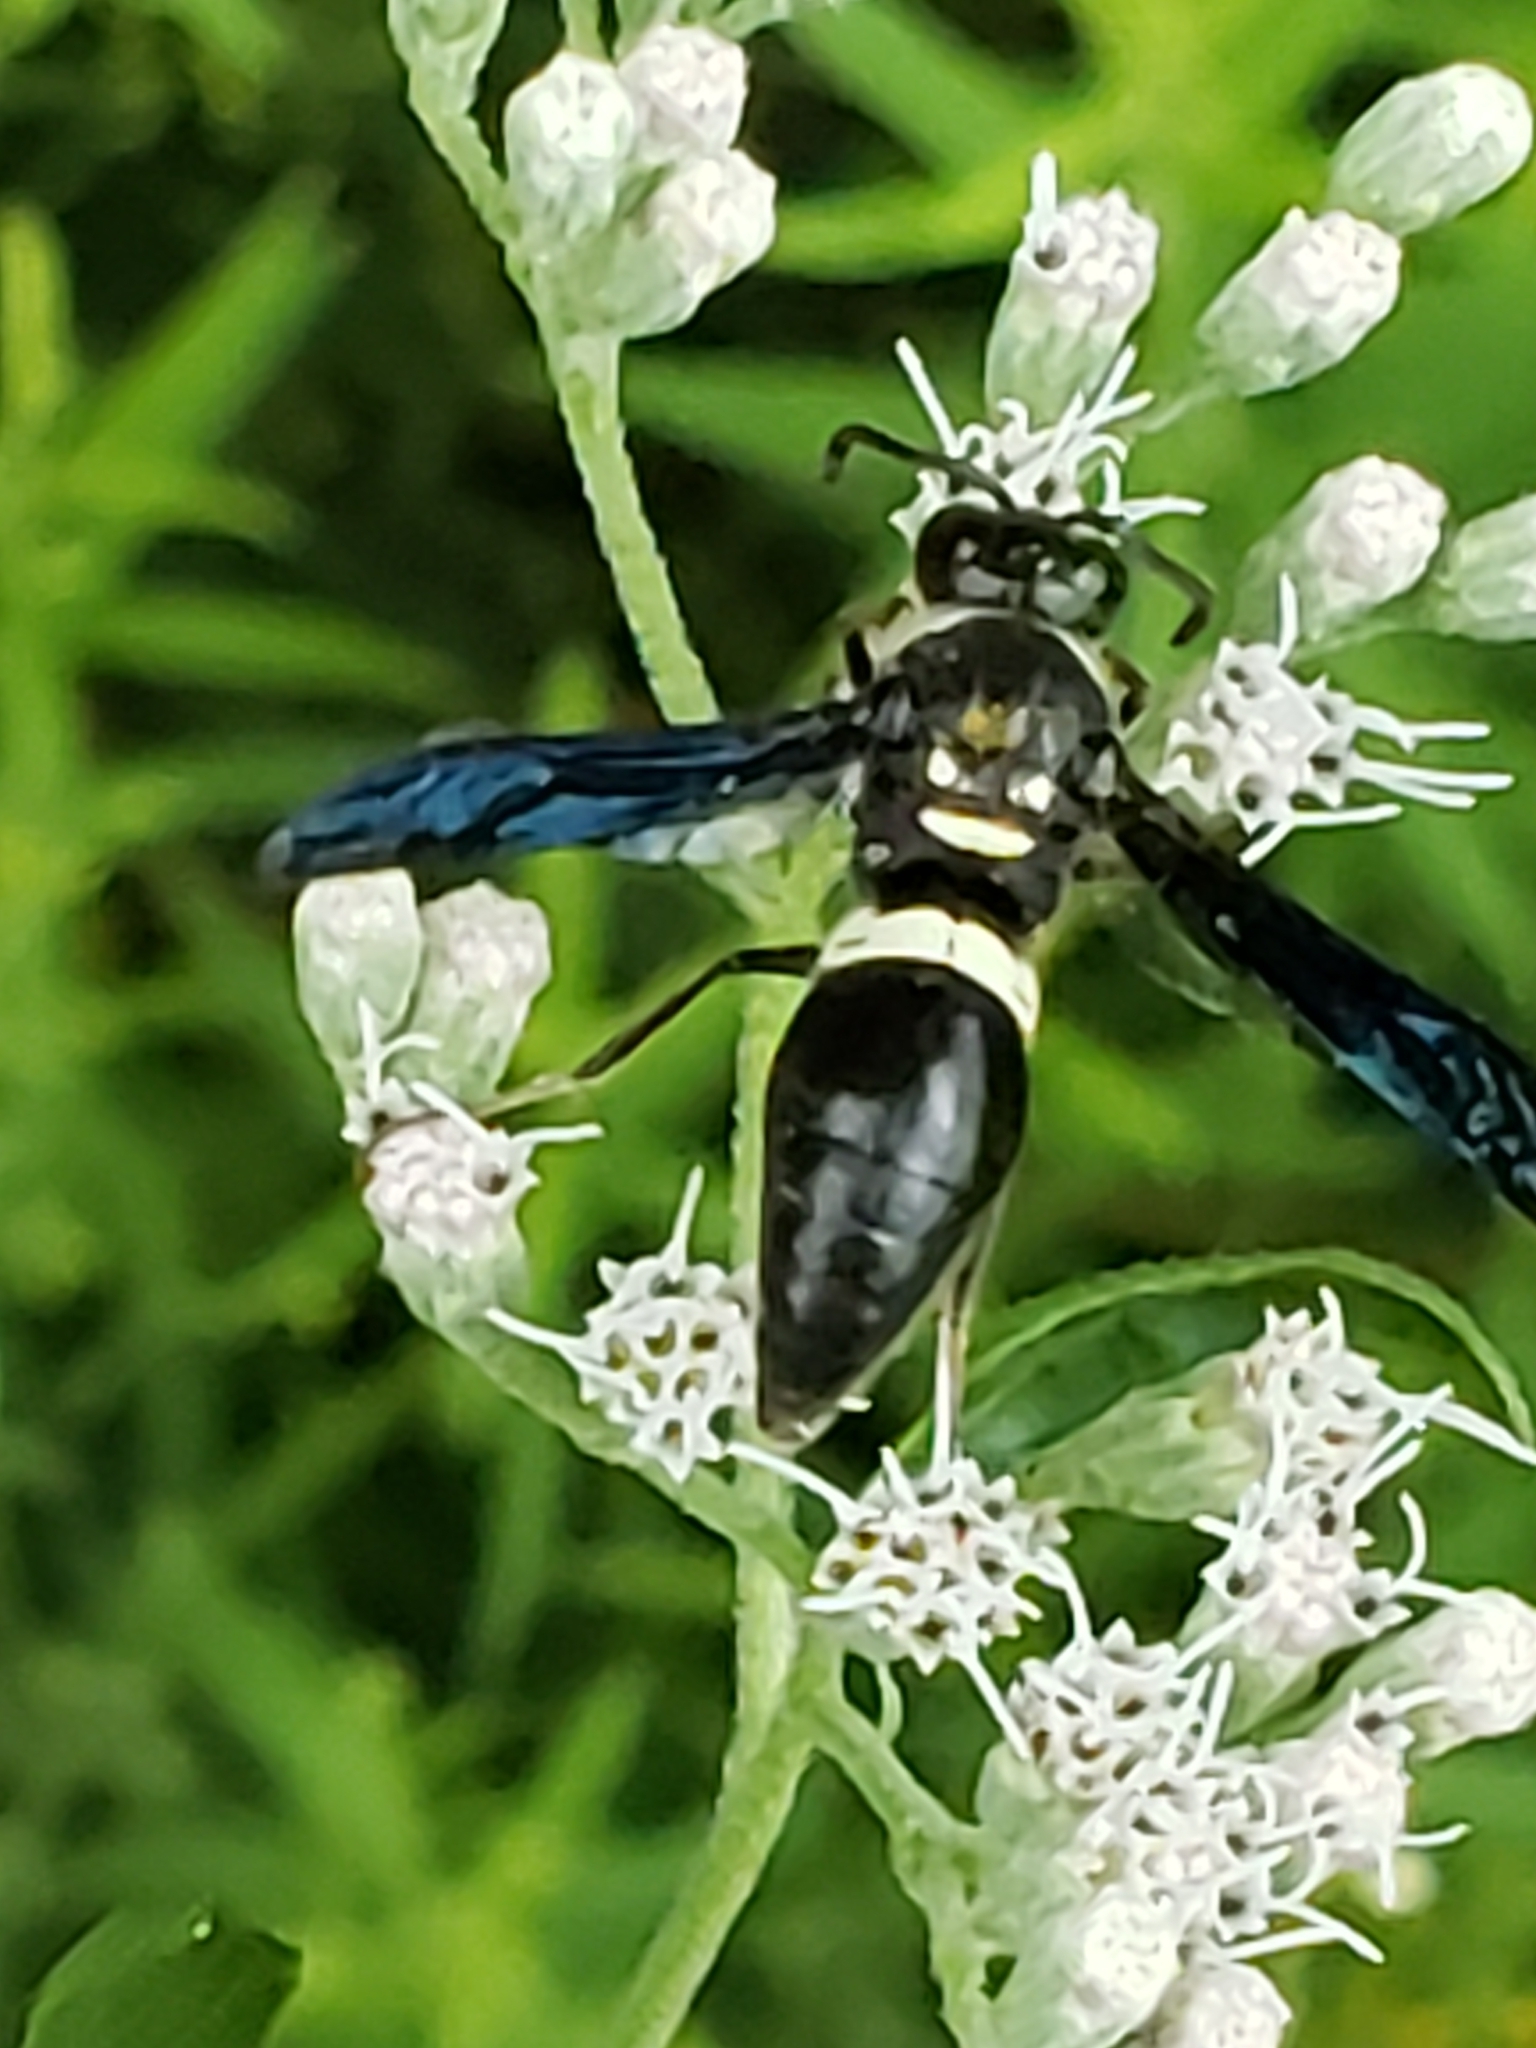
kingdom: Animalia
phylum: Arthropoda
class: Insecta
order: Hymenoptera
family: Eumenidae
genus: Monobia
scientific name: Monobia quadridens
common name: Four-toothed mason wasp
